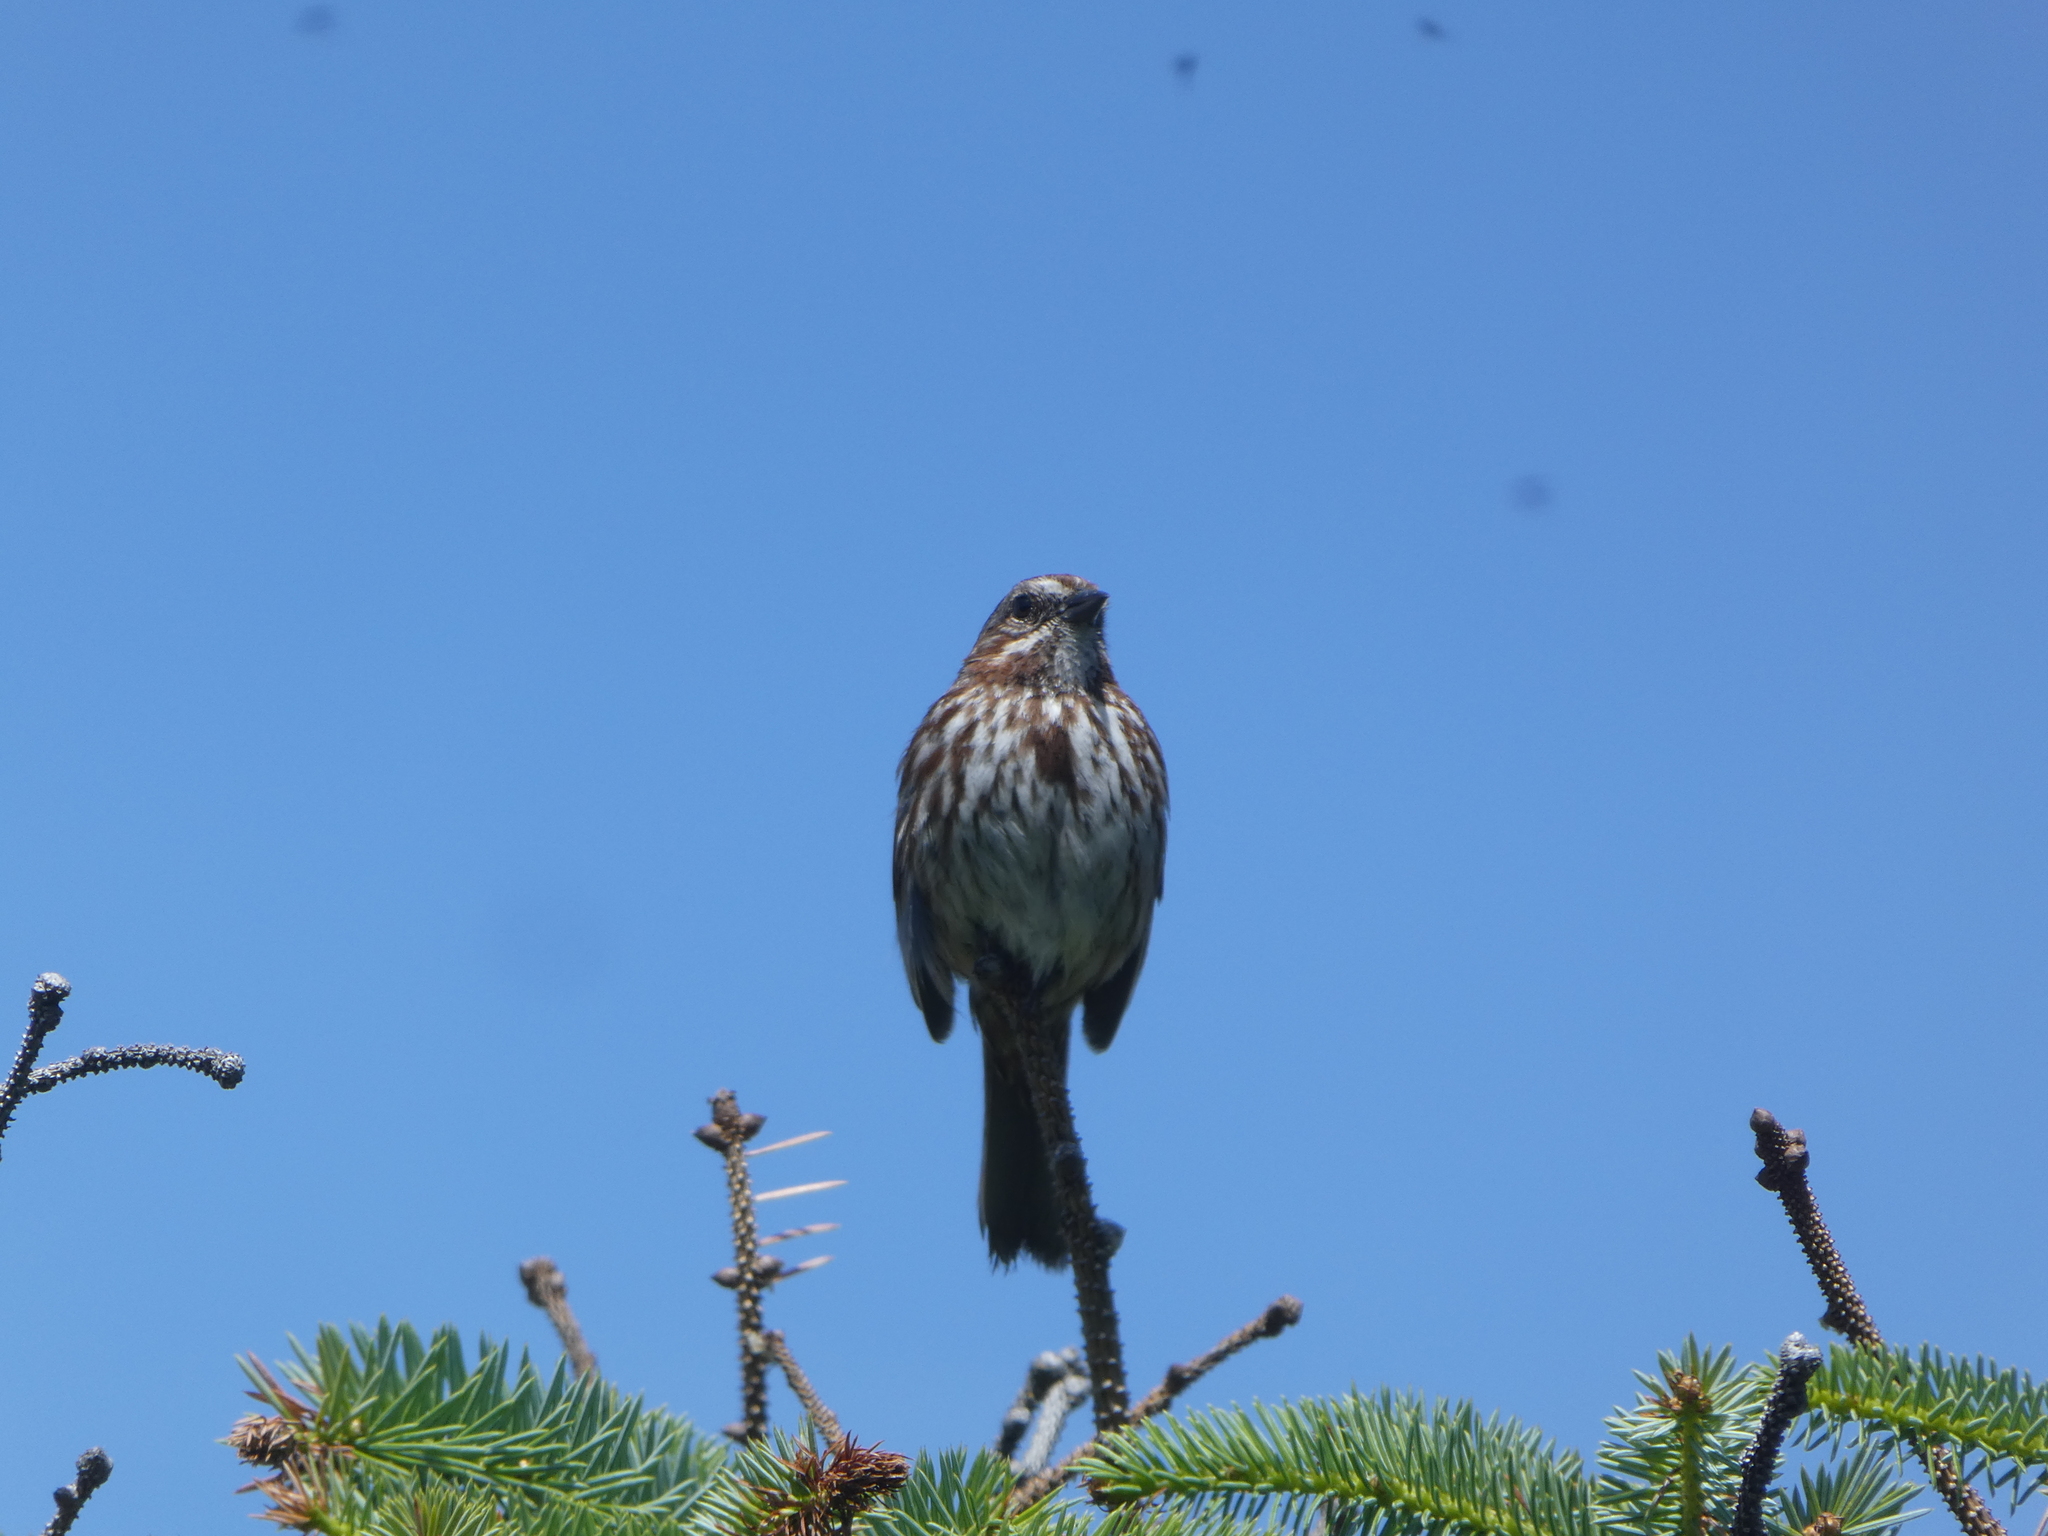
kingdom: Animalia
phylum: Chordata
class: Aves
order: Passeriformes
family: Passerellidae
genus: Melospiza
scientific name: Melospiza melodia
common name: Song sparrow
